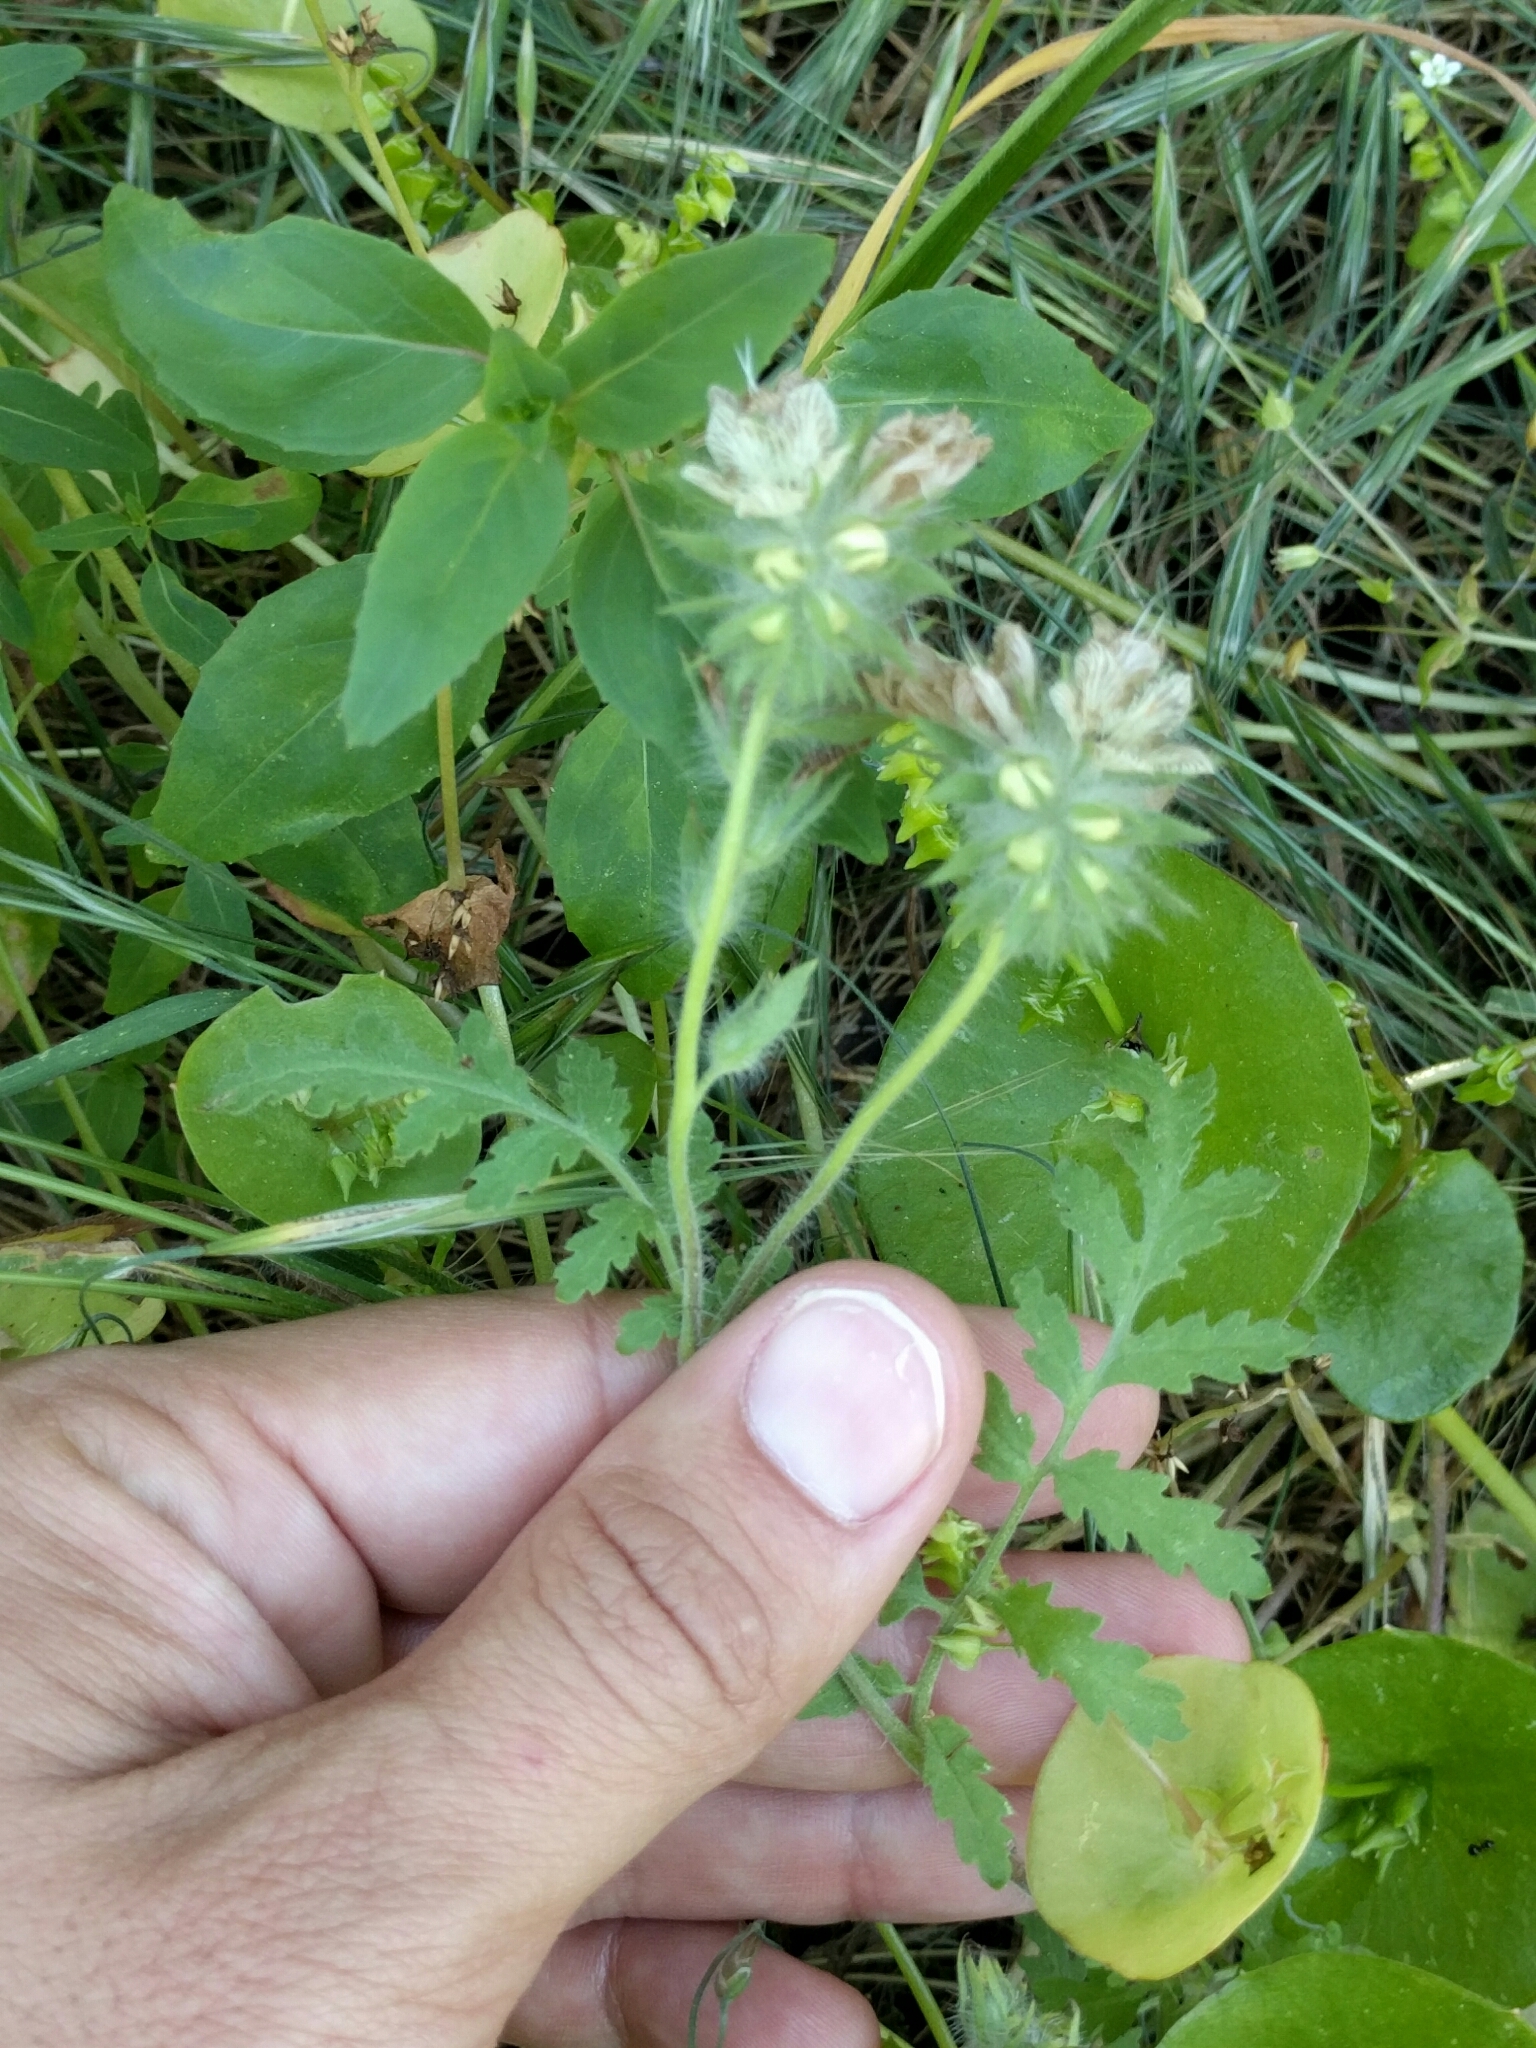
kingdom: Plantae
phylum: Tracheophyta
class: Magnoliopsida
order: Boraginales
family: Hydrophyllaceae
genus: Phacelia
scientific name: Phacelia distans
